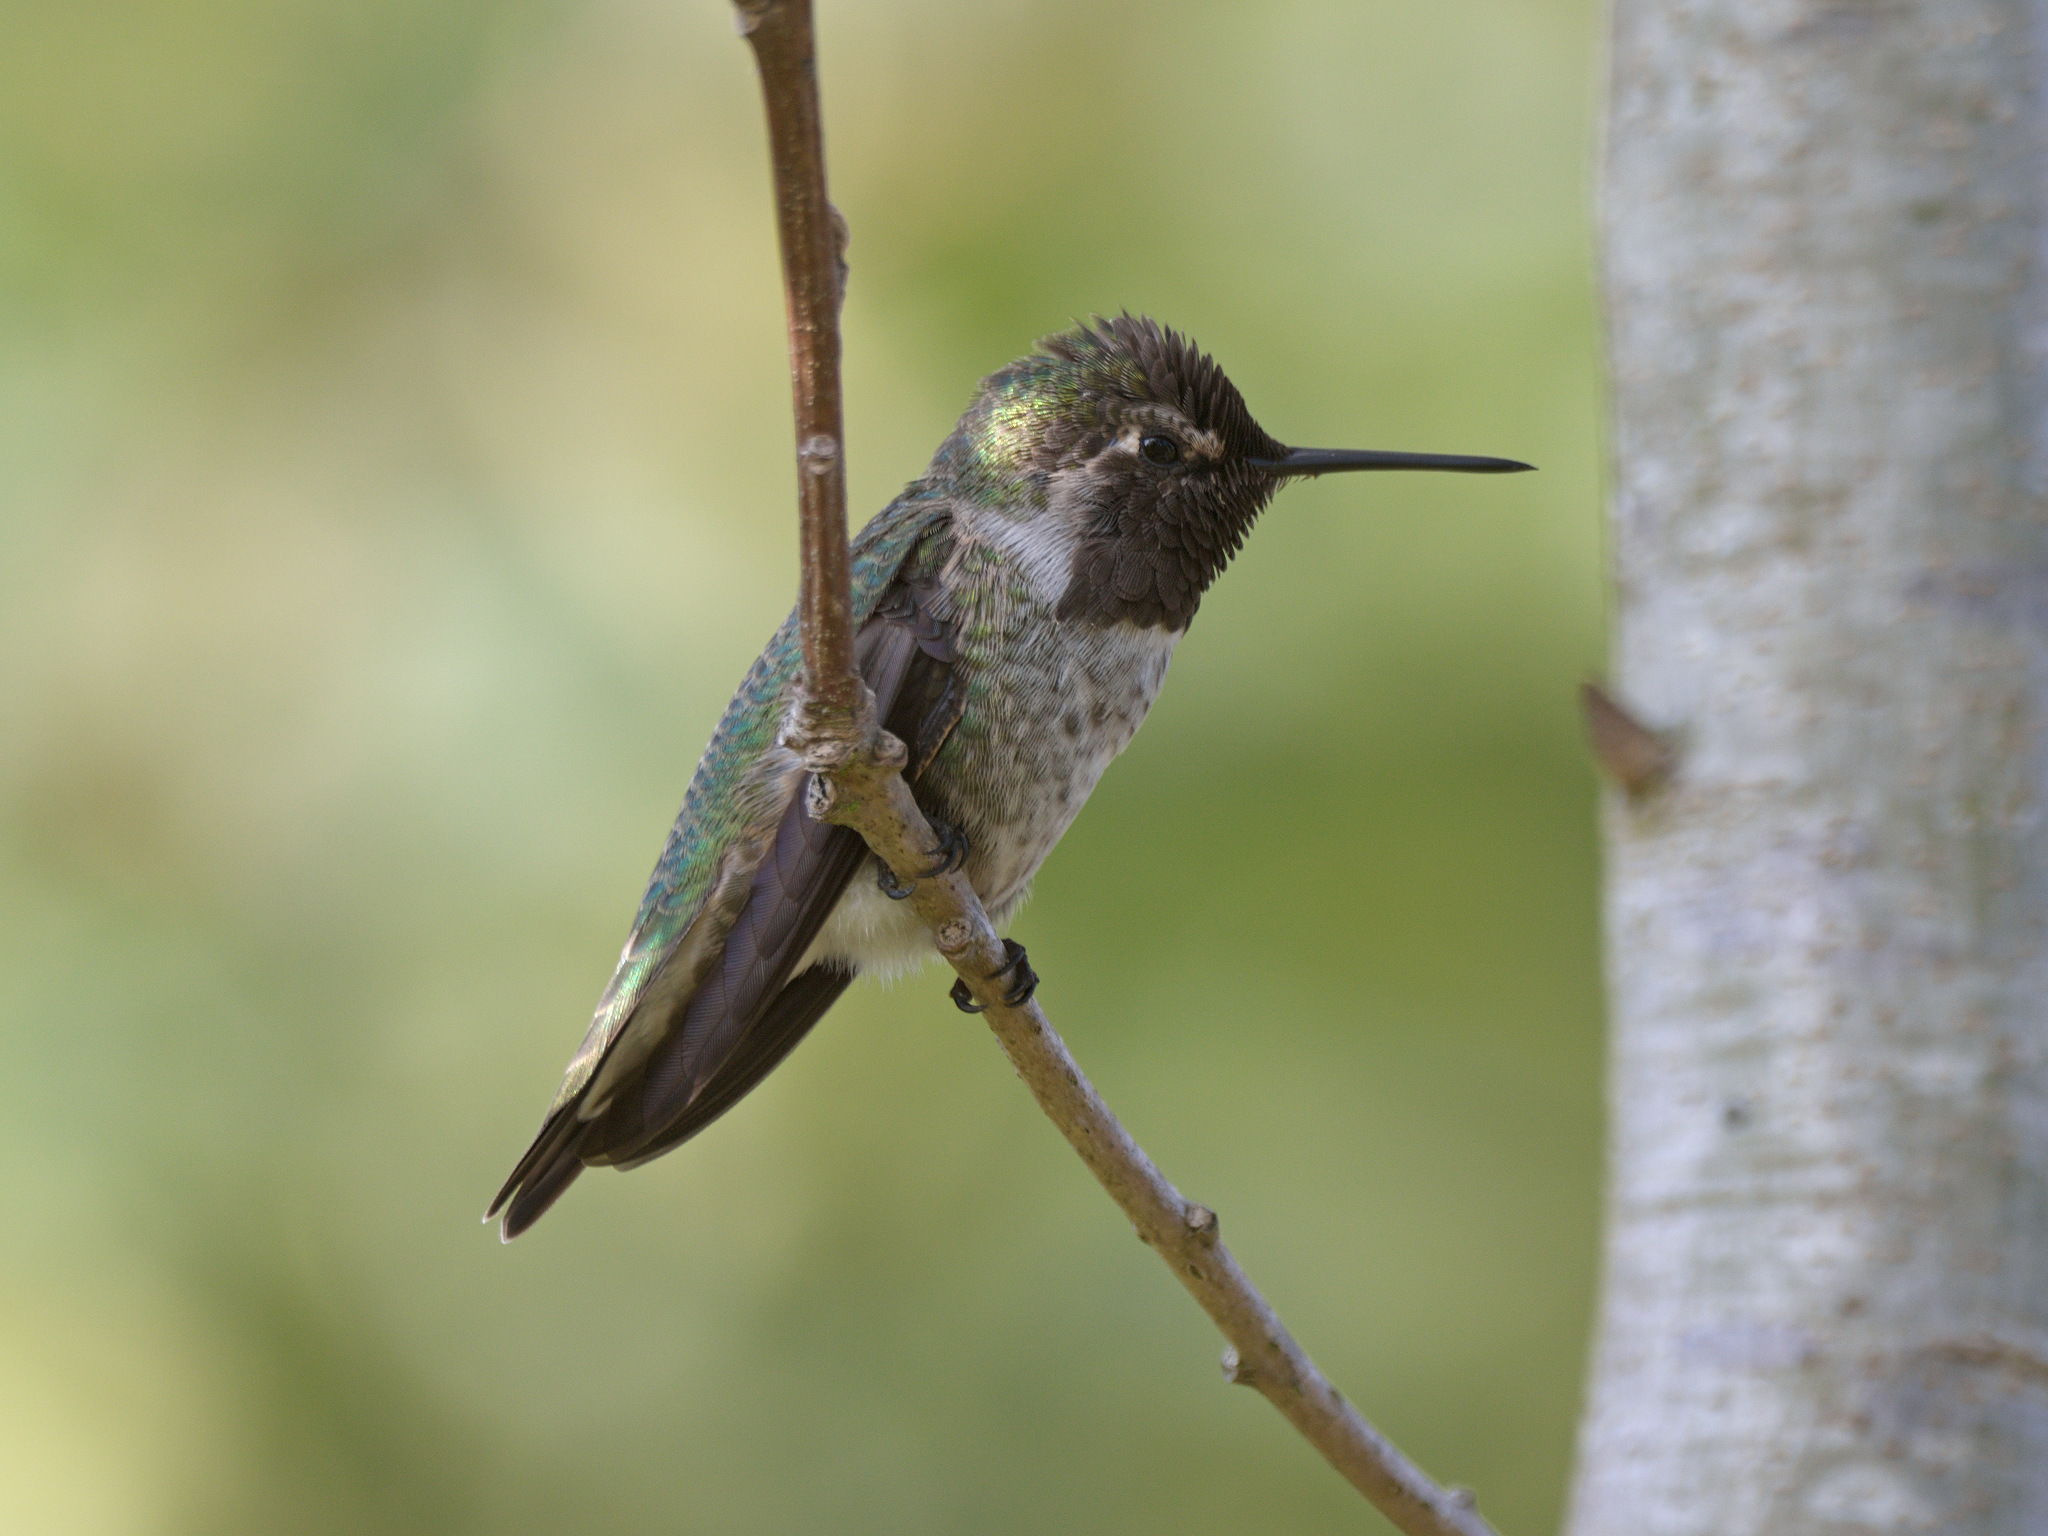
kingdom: Animalia
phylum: Chordata
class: Aves
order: Apodiformes
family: Trochilidae
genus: Calypte
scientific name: Calypte anna
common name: Anna's hummingbird
